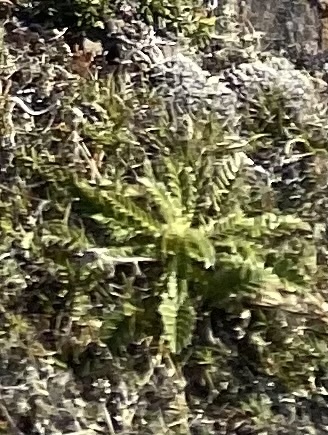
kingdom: Plantae
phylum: Tracheophyta
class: Magnoliopsida
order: Rosales
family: Rosaceae
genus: Geum
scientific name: Geum glaciale
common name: Glacier avens
